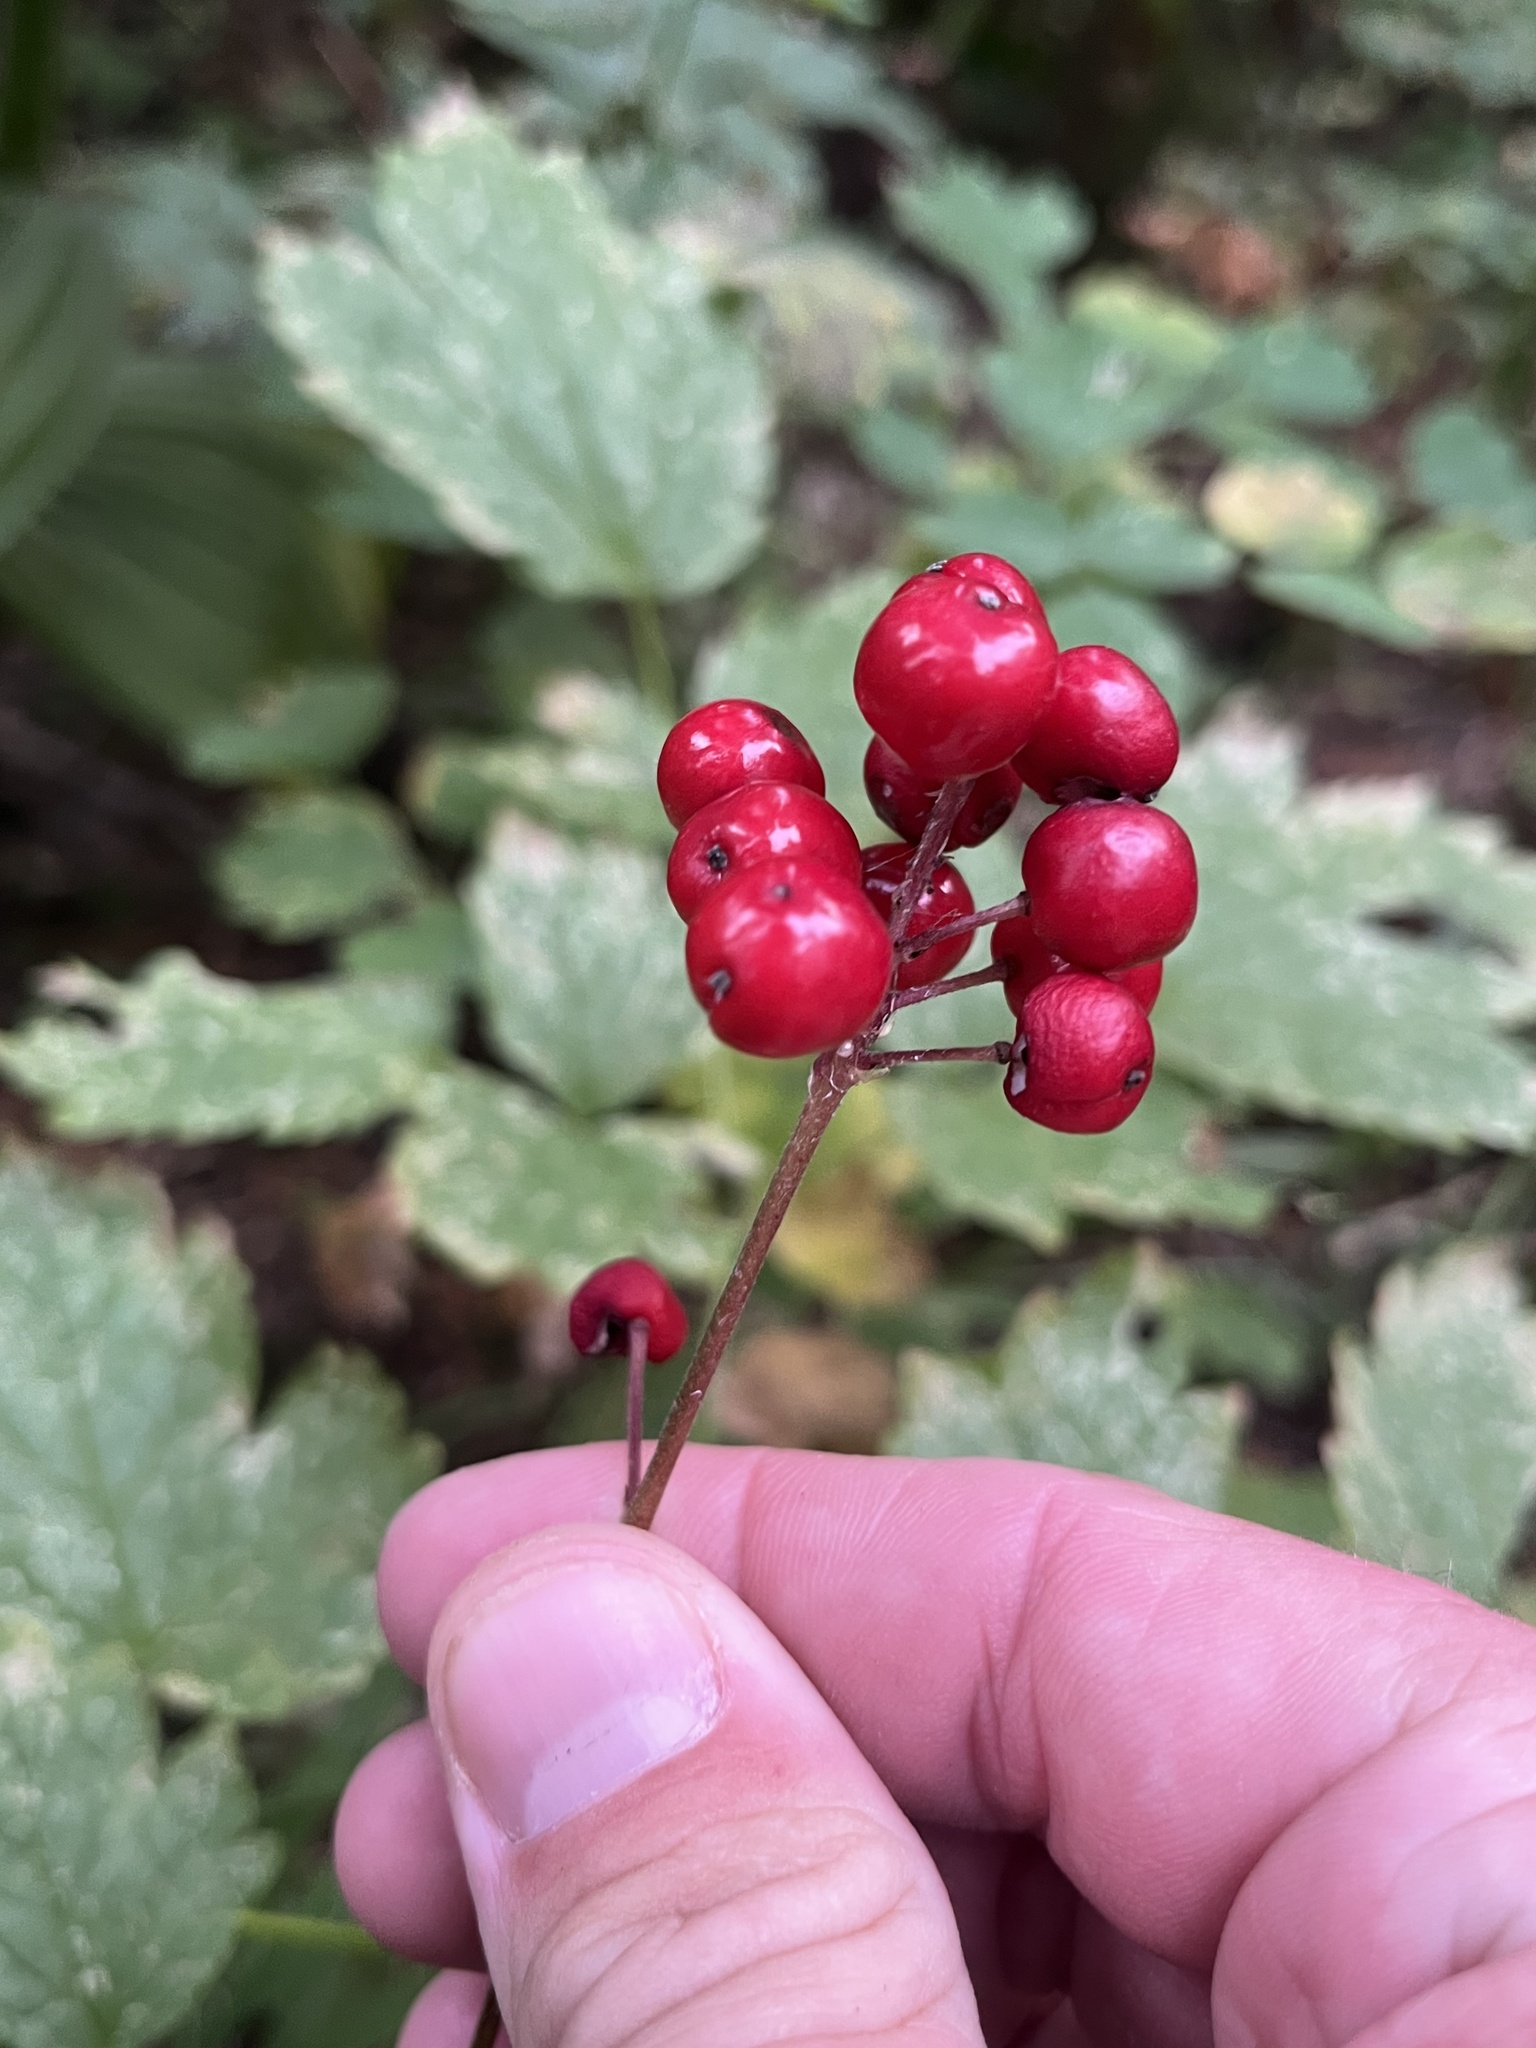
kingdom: Plantae
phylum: Tracheophyta
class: Magnoliopsida
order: Ranunculales
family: Ranunculaceae
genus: Actaea
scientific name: Actaea rubra
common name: Red baneberry
